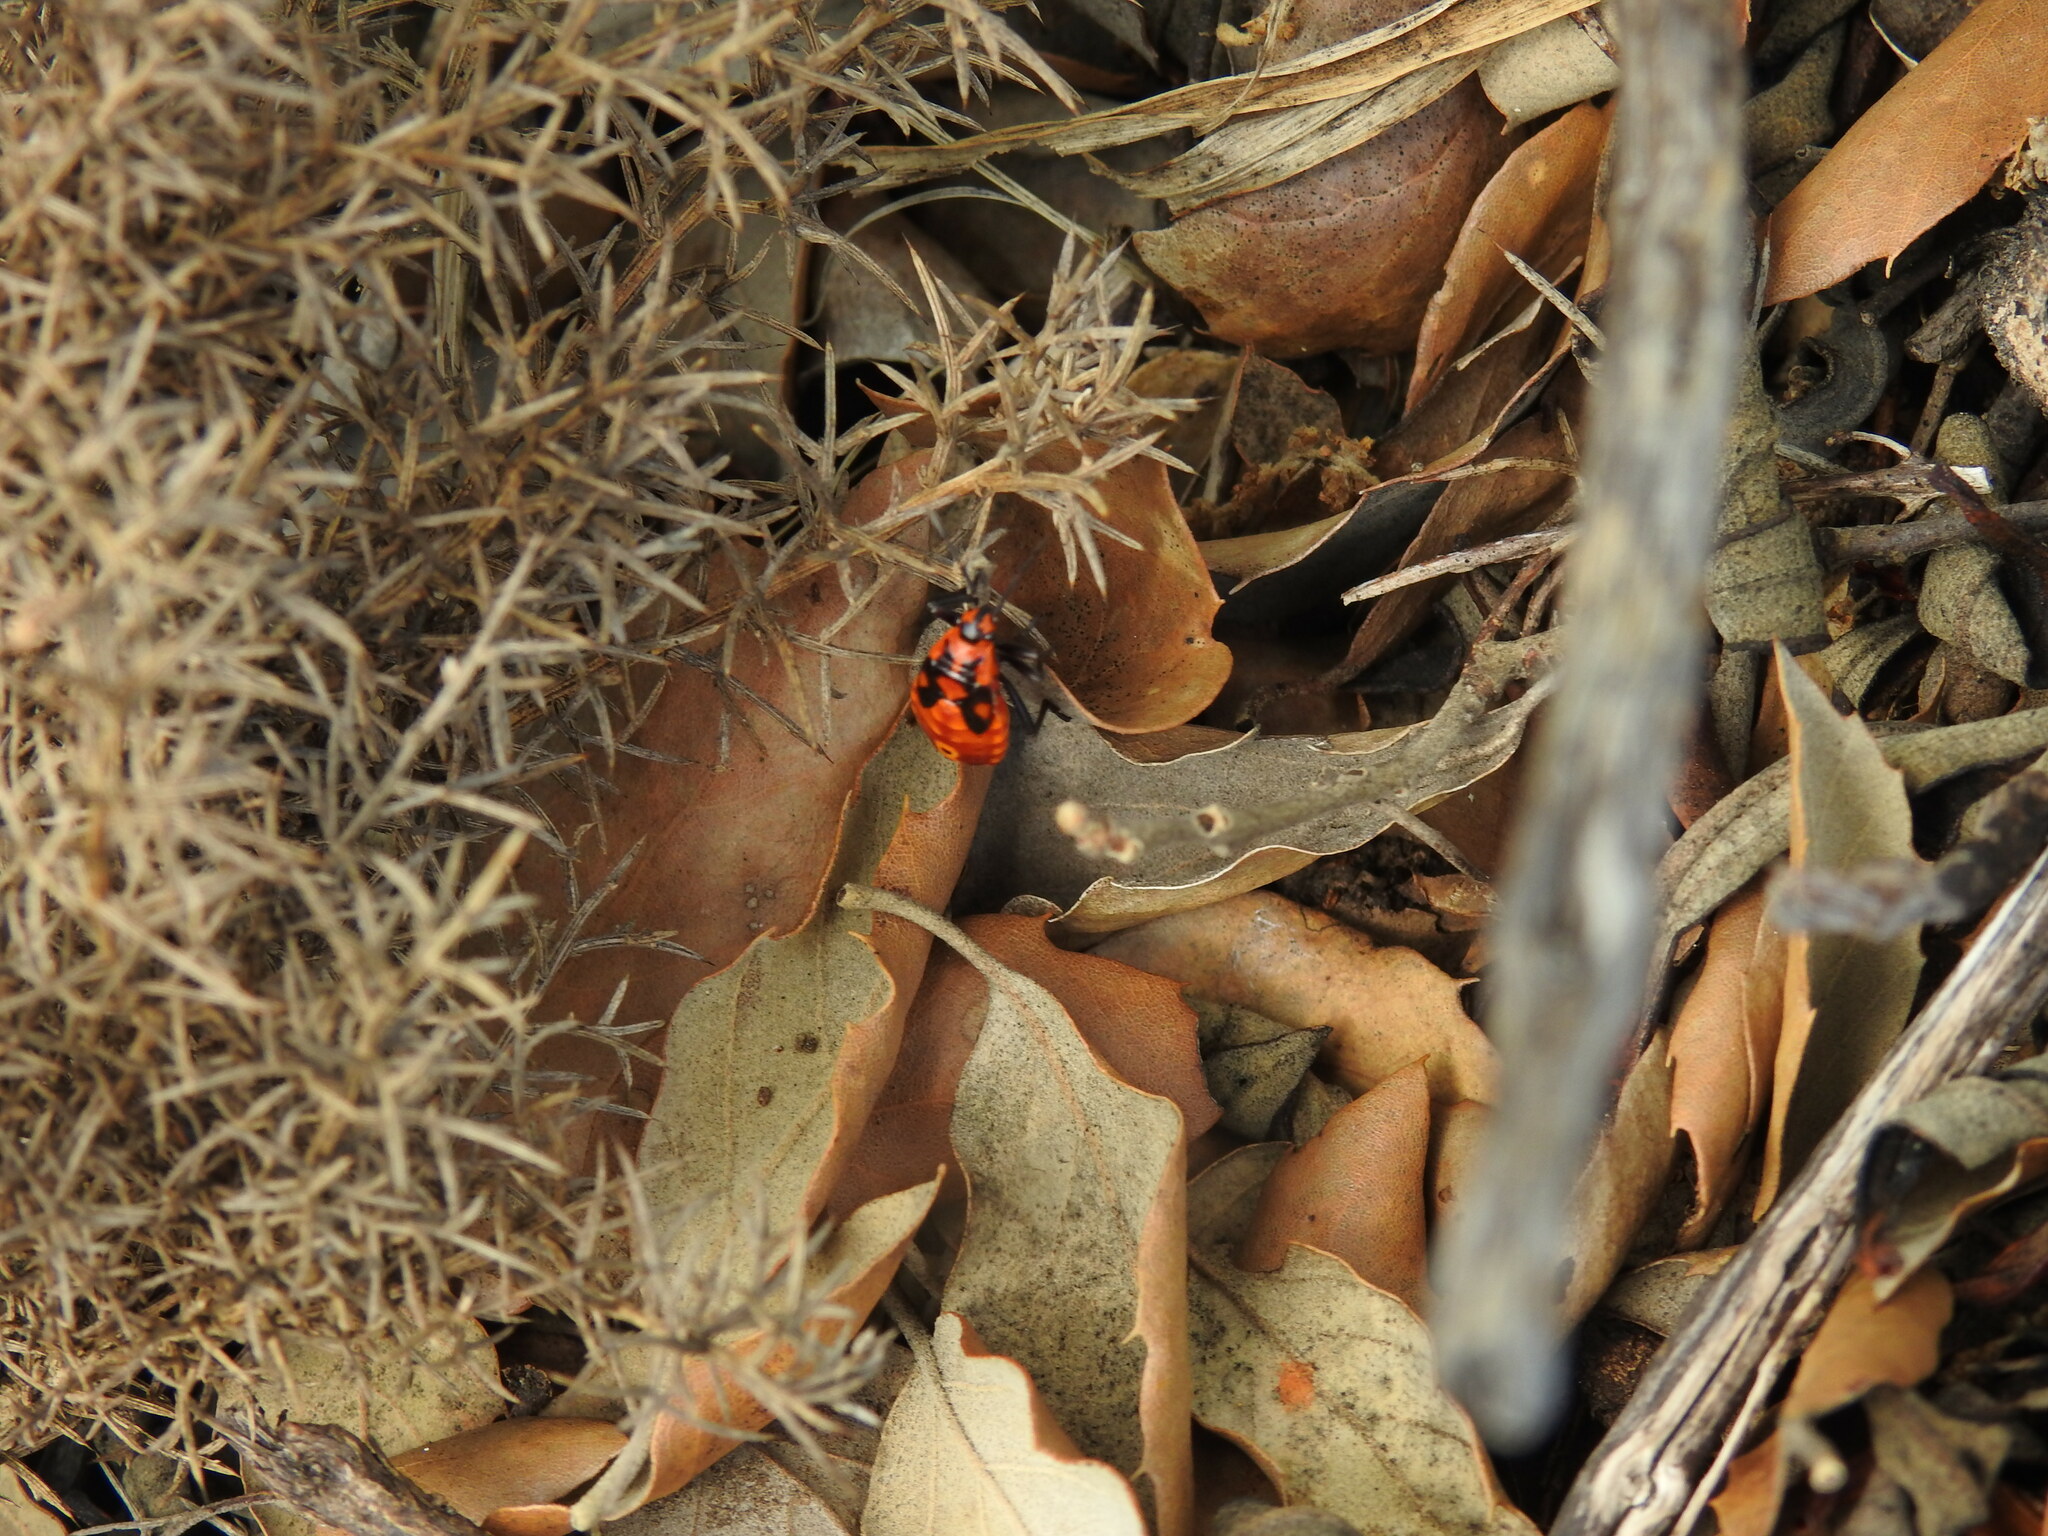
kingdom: Animalia
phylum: Arthropoda
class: Insecta
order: Hemiptera
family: Lygaeidae
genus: Spilostethus
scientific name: Spilostethus pandurus
